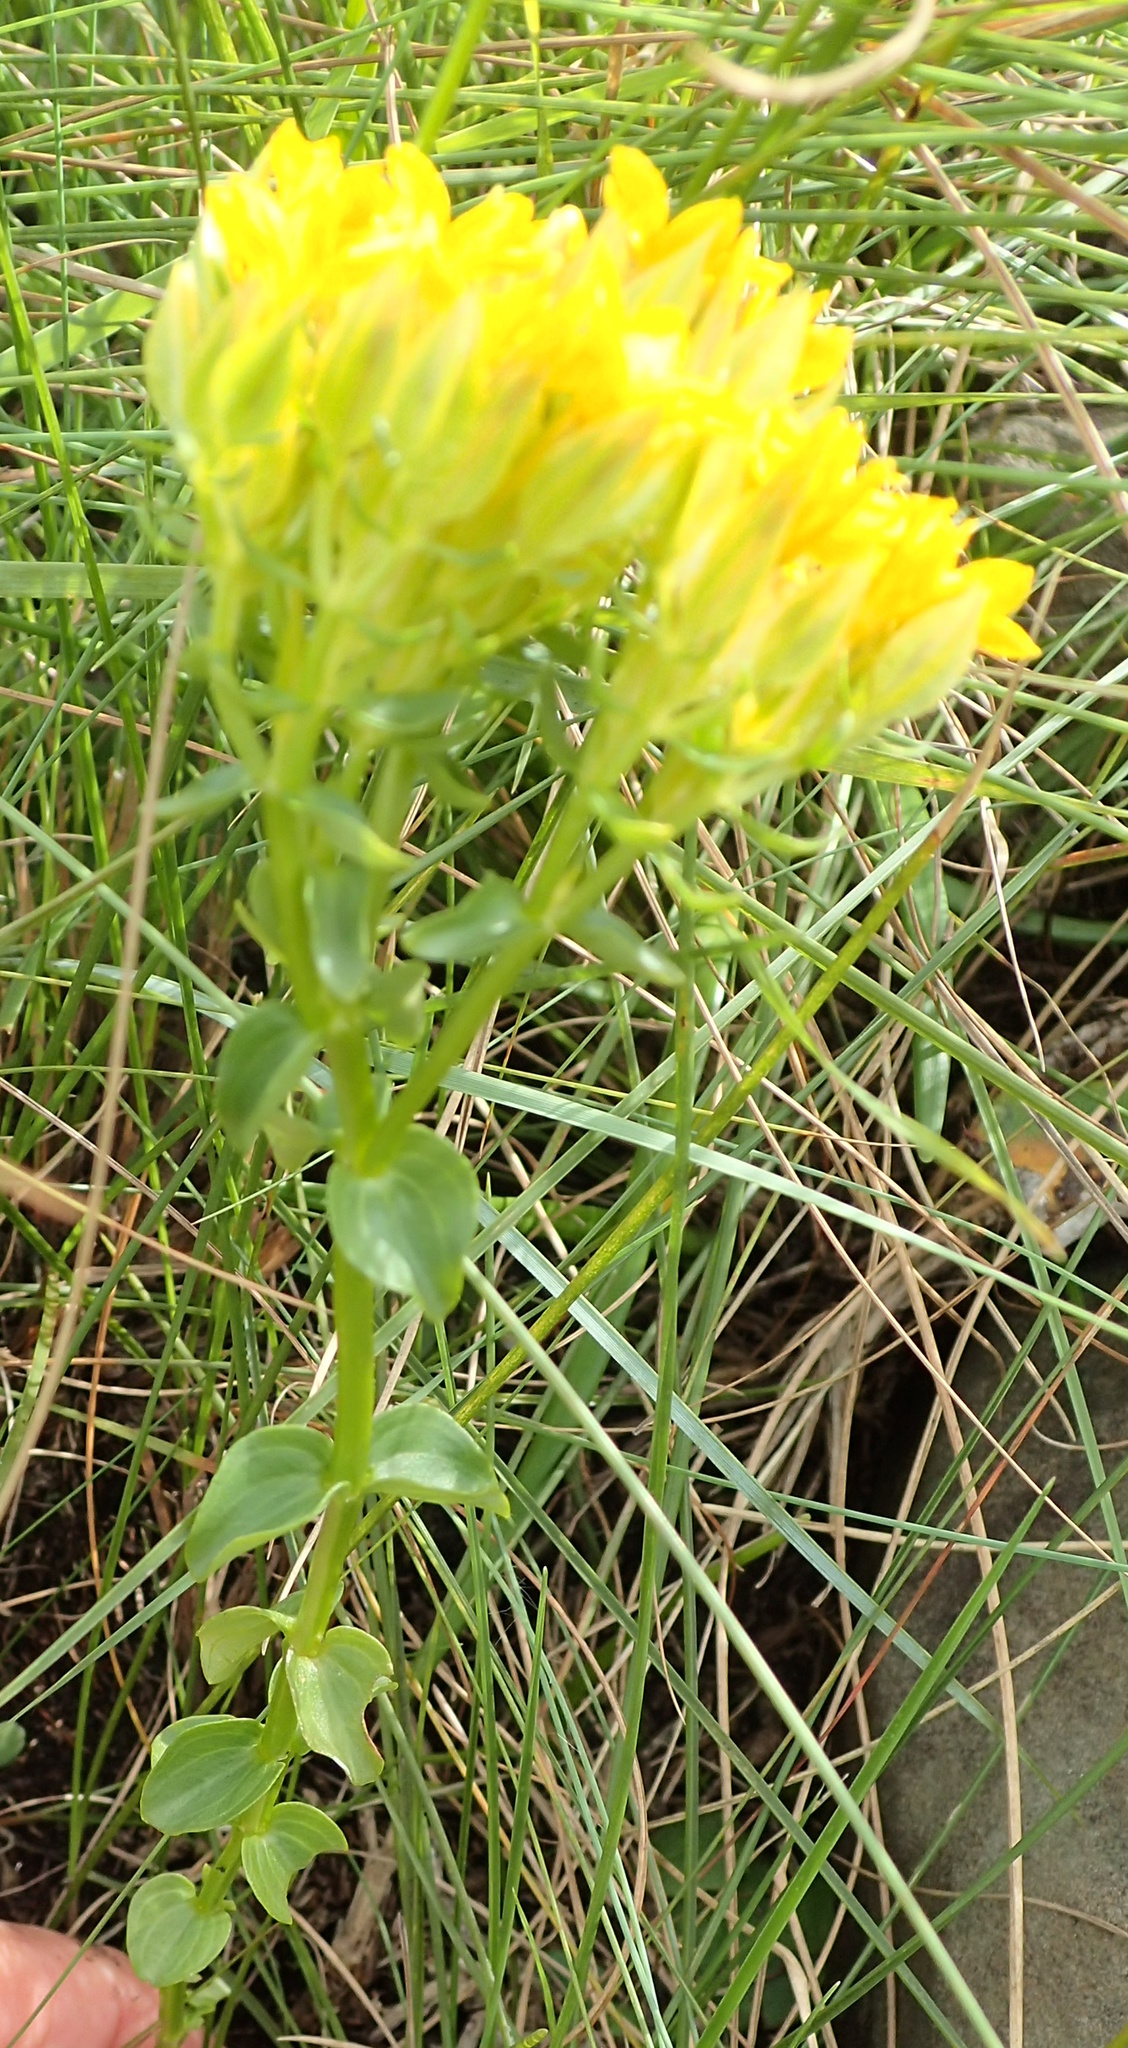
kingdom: Plantae
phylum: Tracheophyta
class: Magnoliopsida
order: Gentianales
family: Gentianaceae
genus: Sebaea
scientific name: Sebaea natalensis
